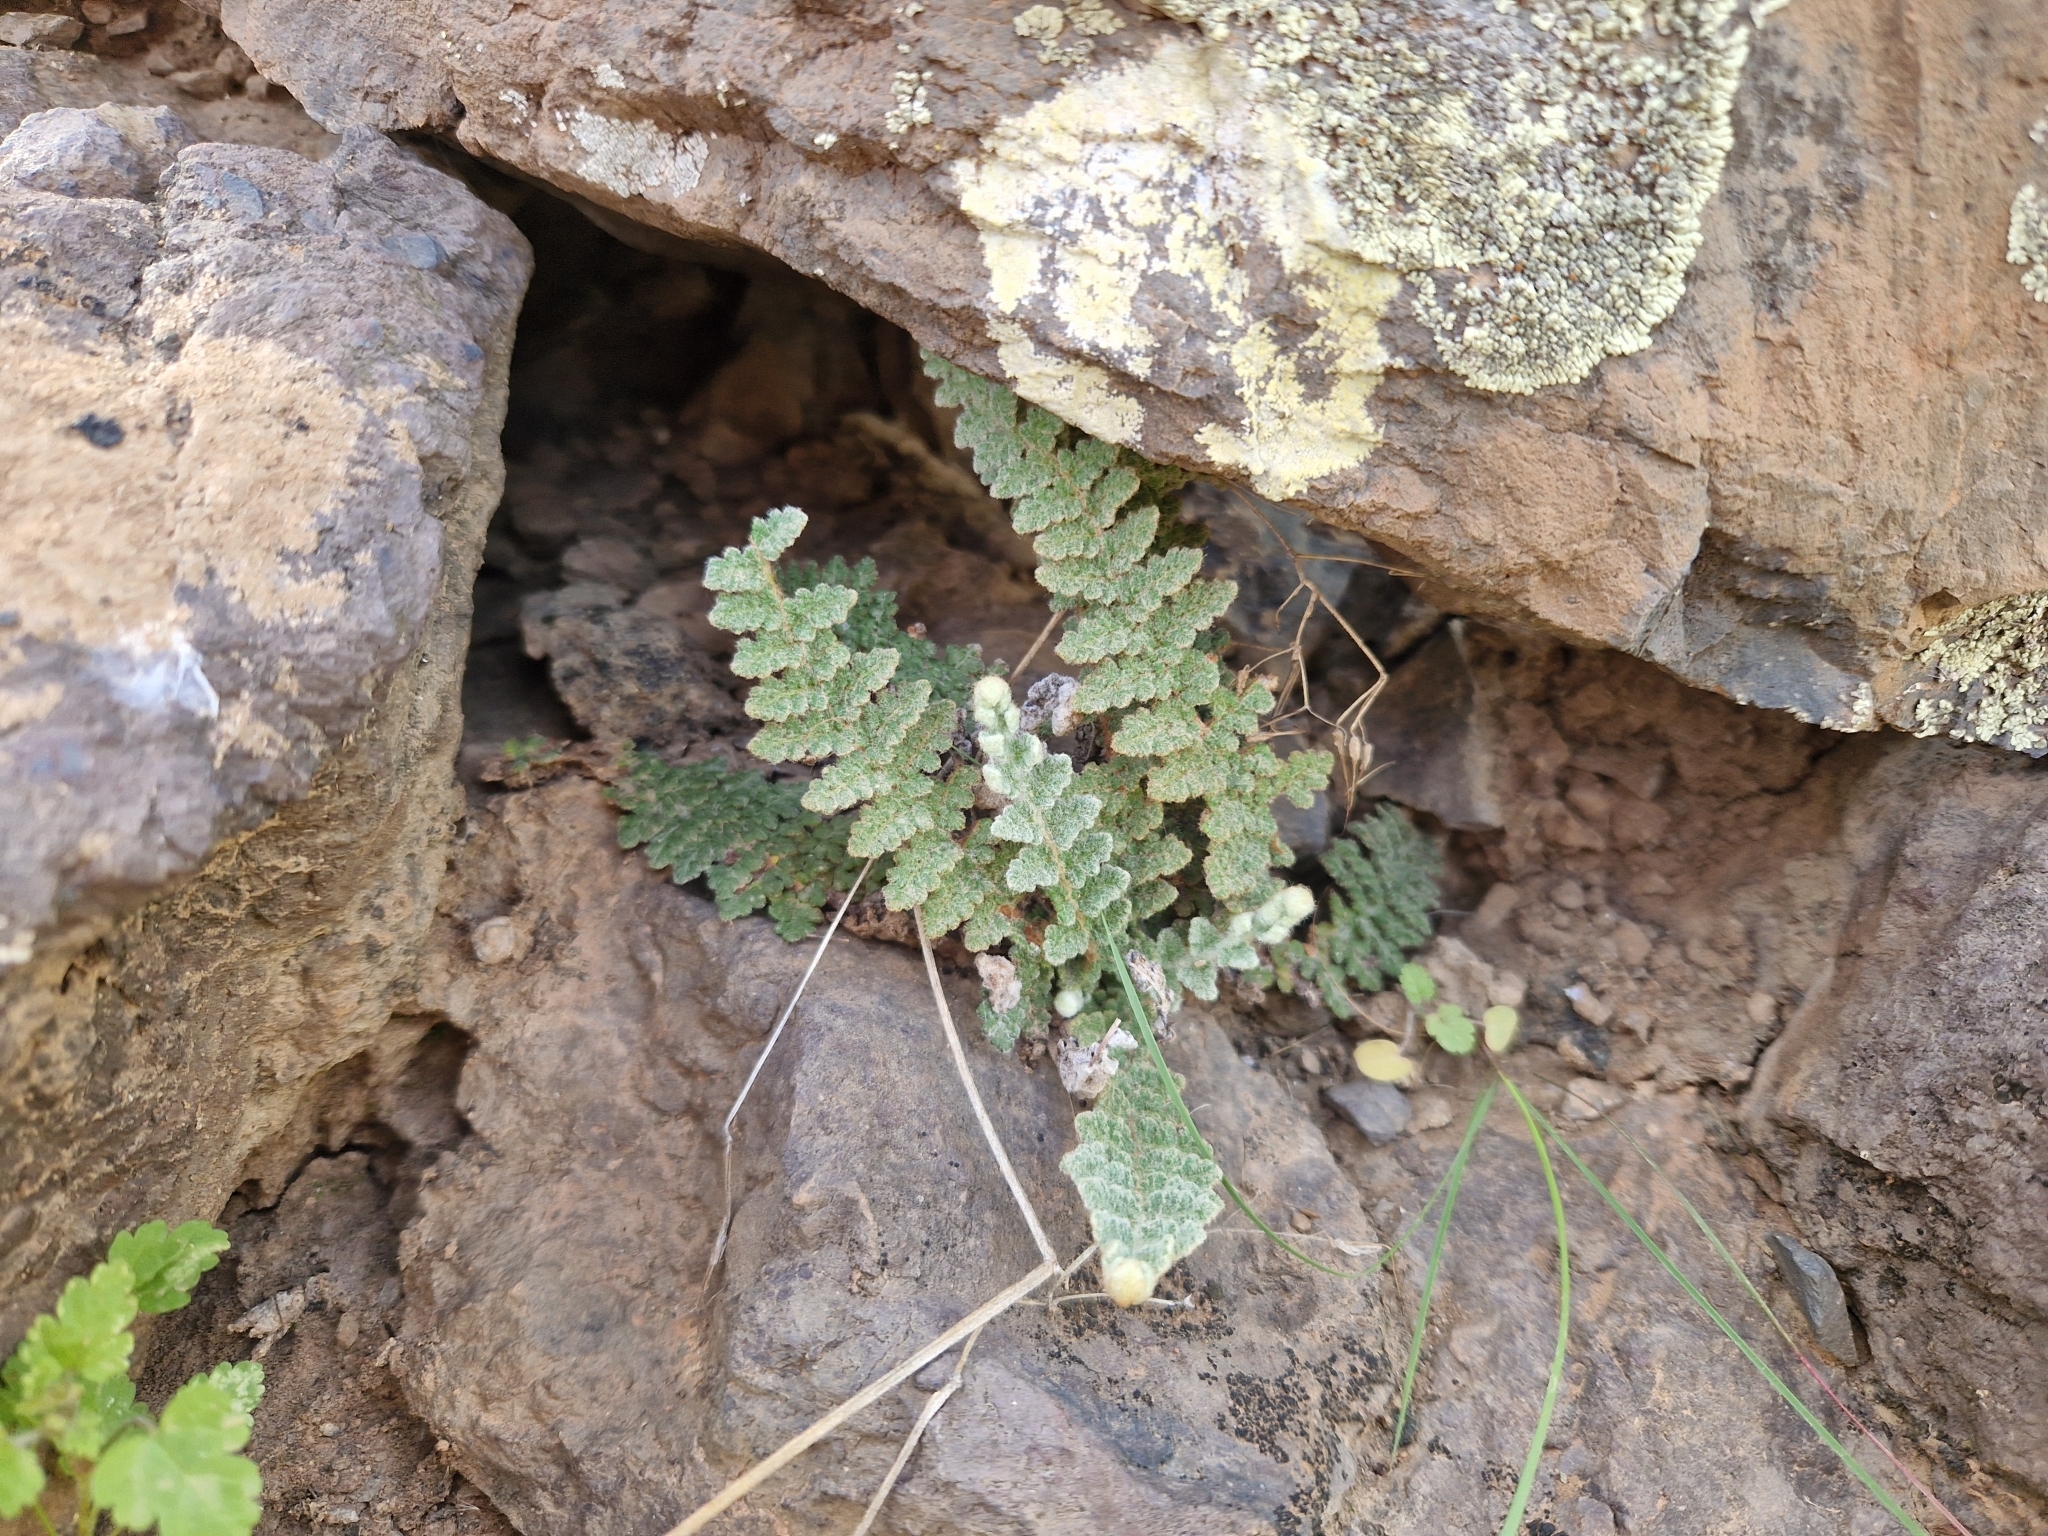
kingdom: Plantae
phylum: Tracheophyta
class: Polypodiopsida
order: Polypodiales
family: Pteridaceae
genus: Cosentinia
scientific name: Cosentinia vellea
